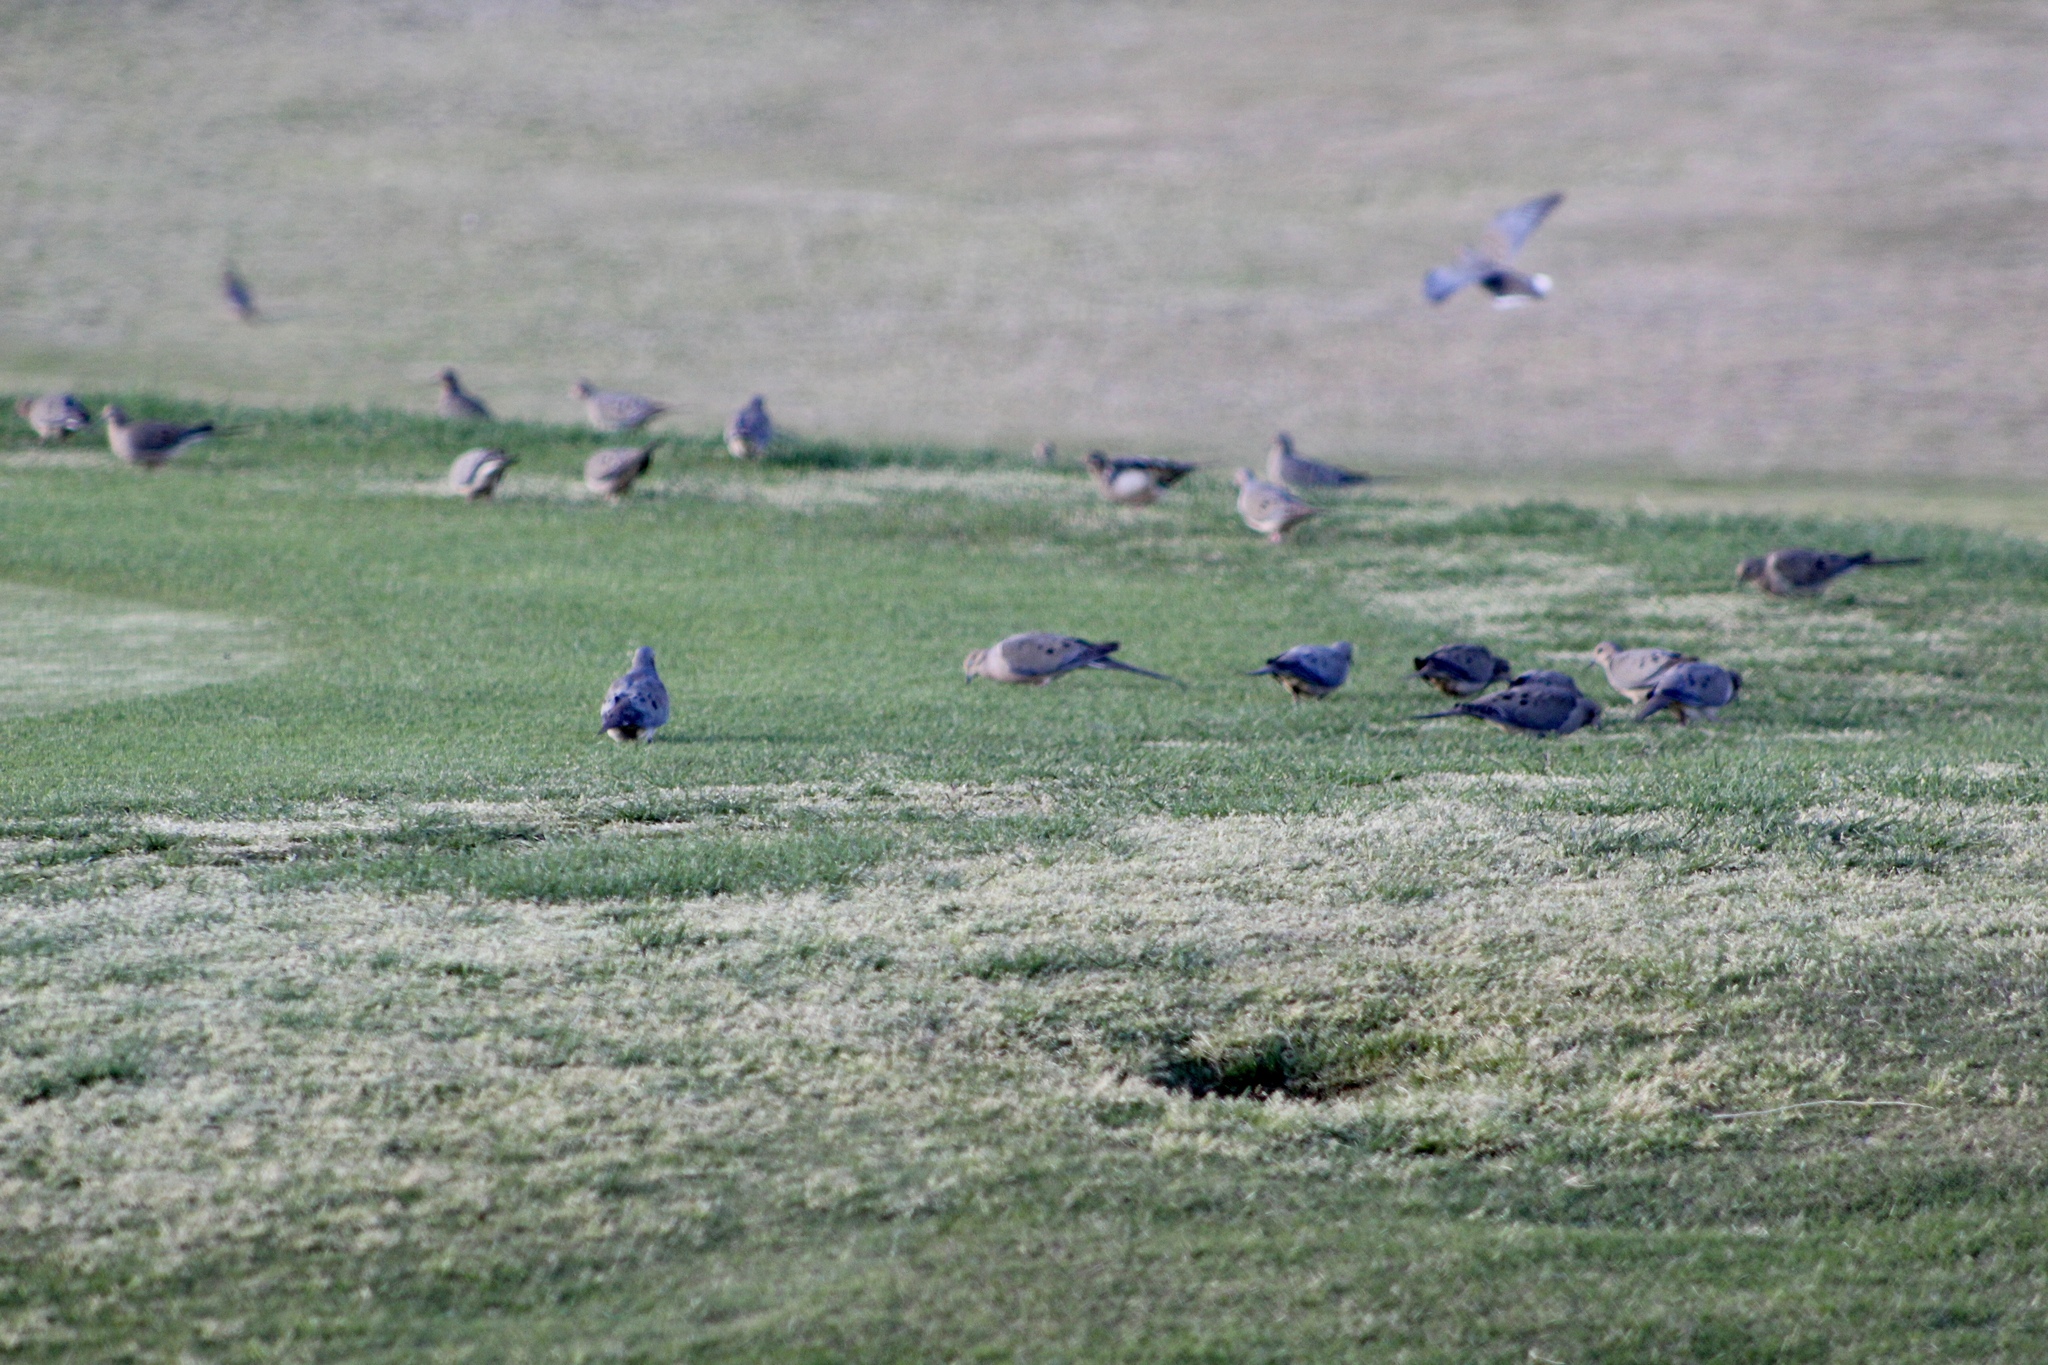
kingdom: Animalia
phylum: Chordata
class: Aves
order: Columbiformes
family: Columbidae
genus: Zenaida
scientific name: Zenaida macroura
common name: Mourning dove
